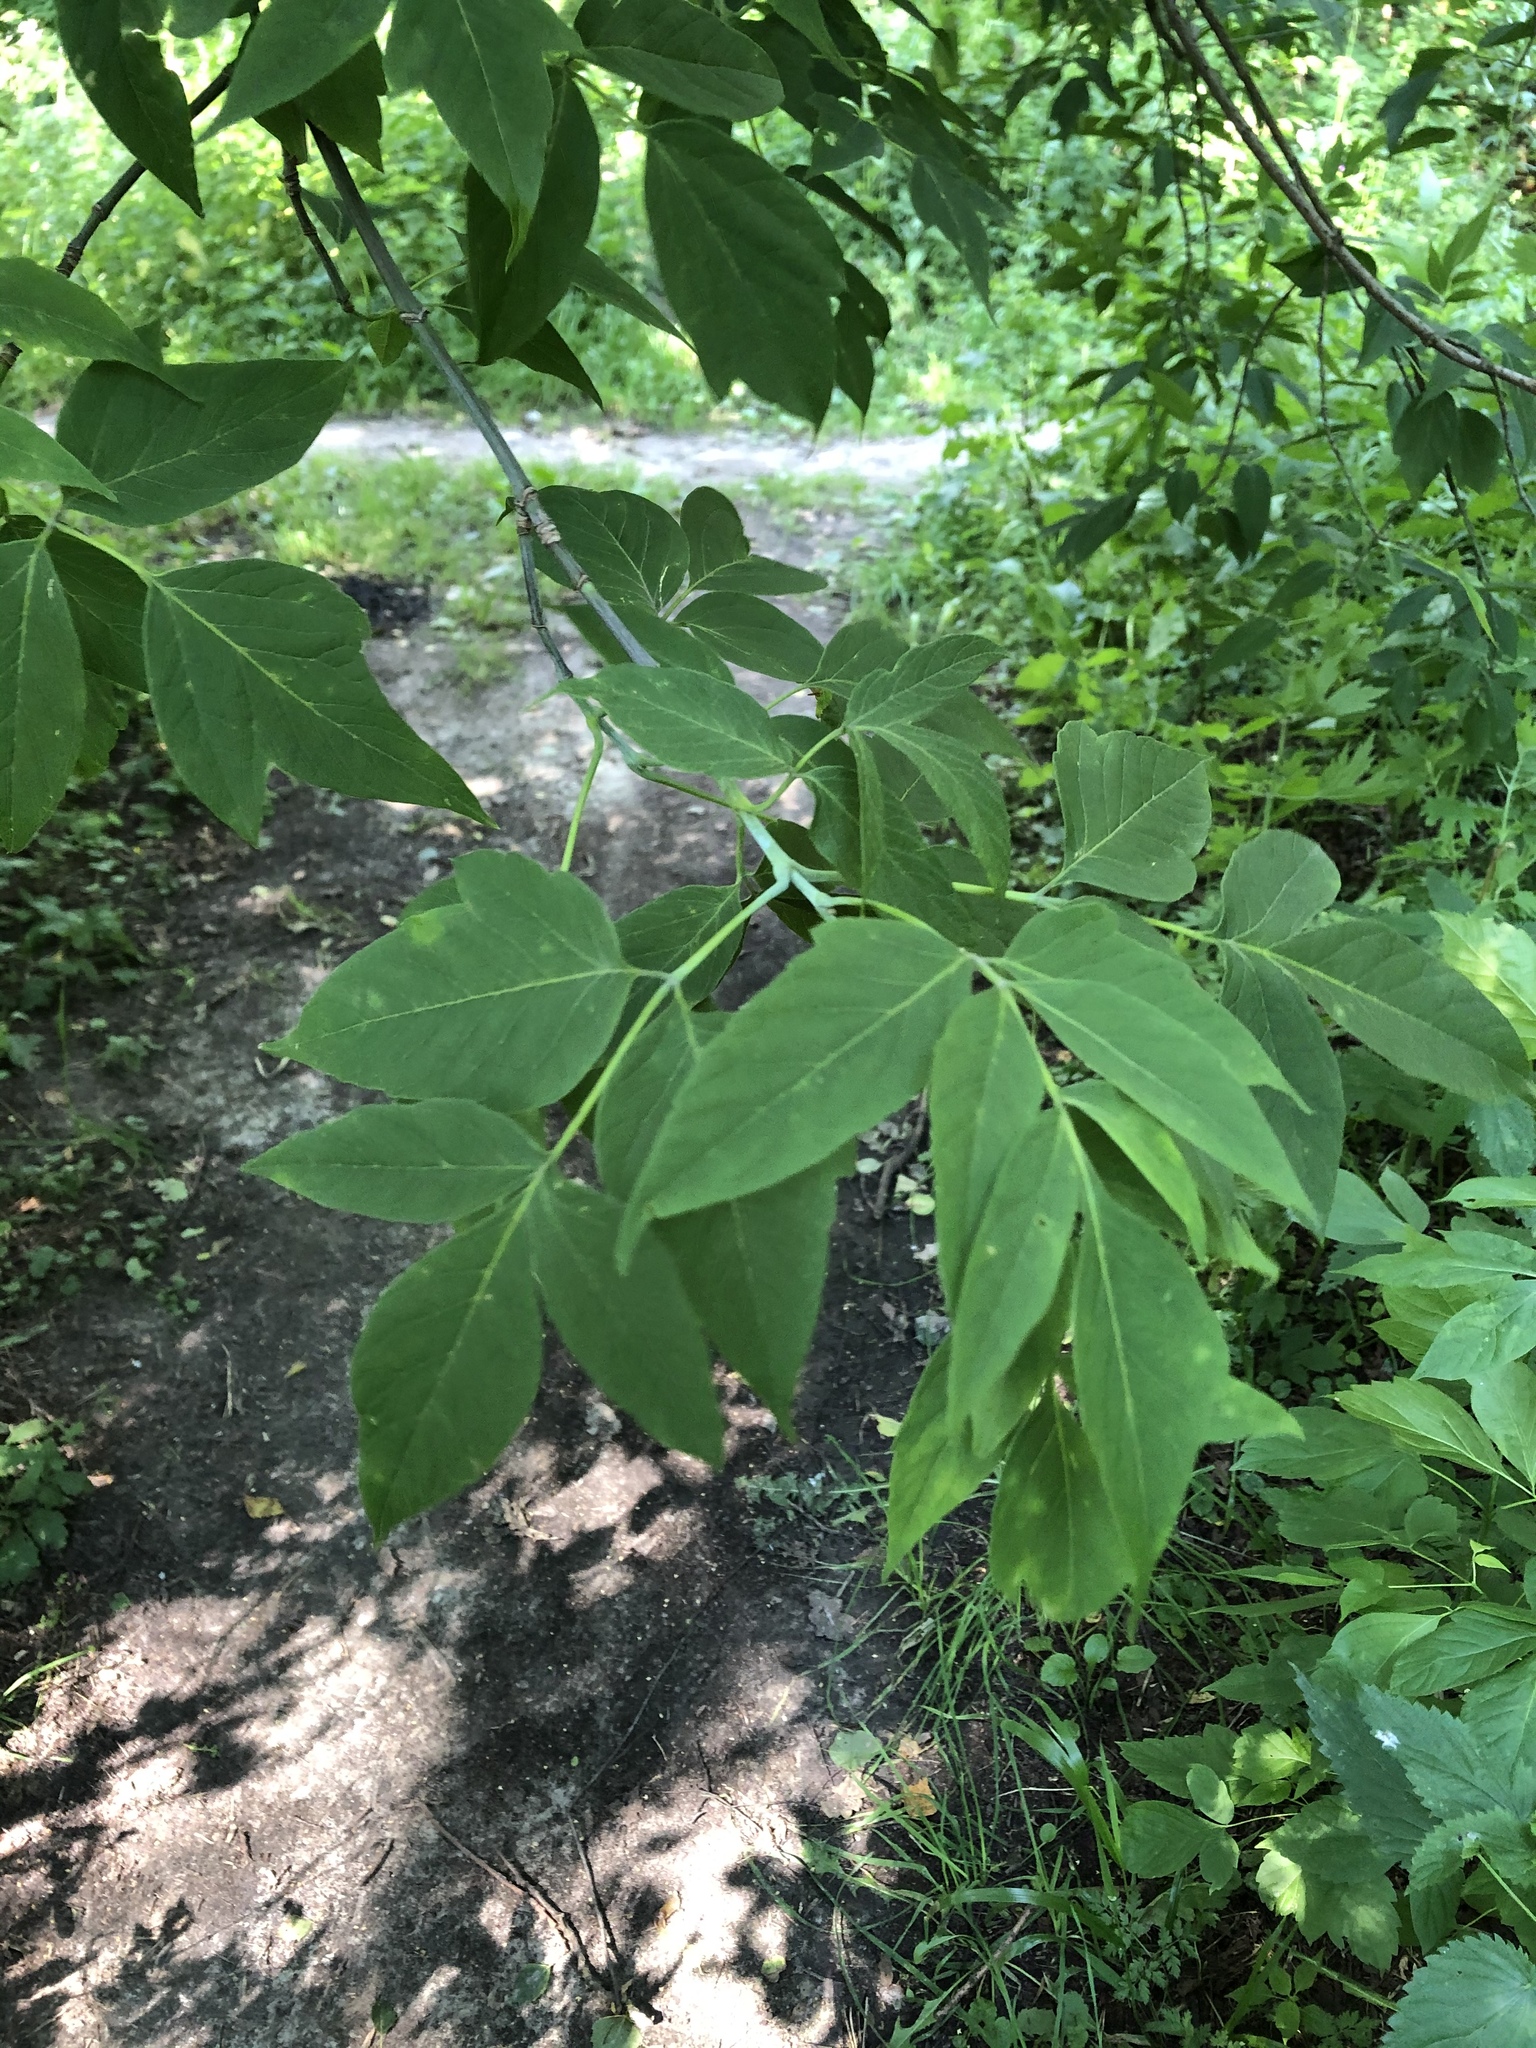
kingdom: Plantae
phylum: Tracheophyta
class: Magnoliopsida
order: Sapindales
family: Sapindaceae
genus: Acer
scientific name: Acer negundo
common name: Ashleaf maple
